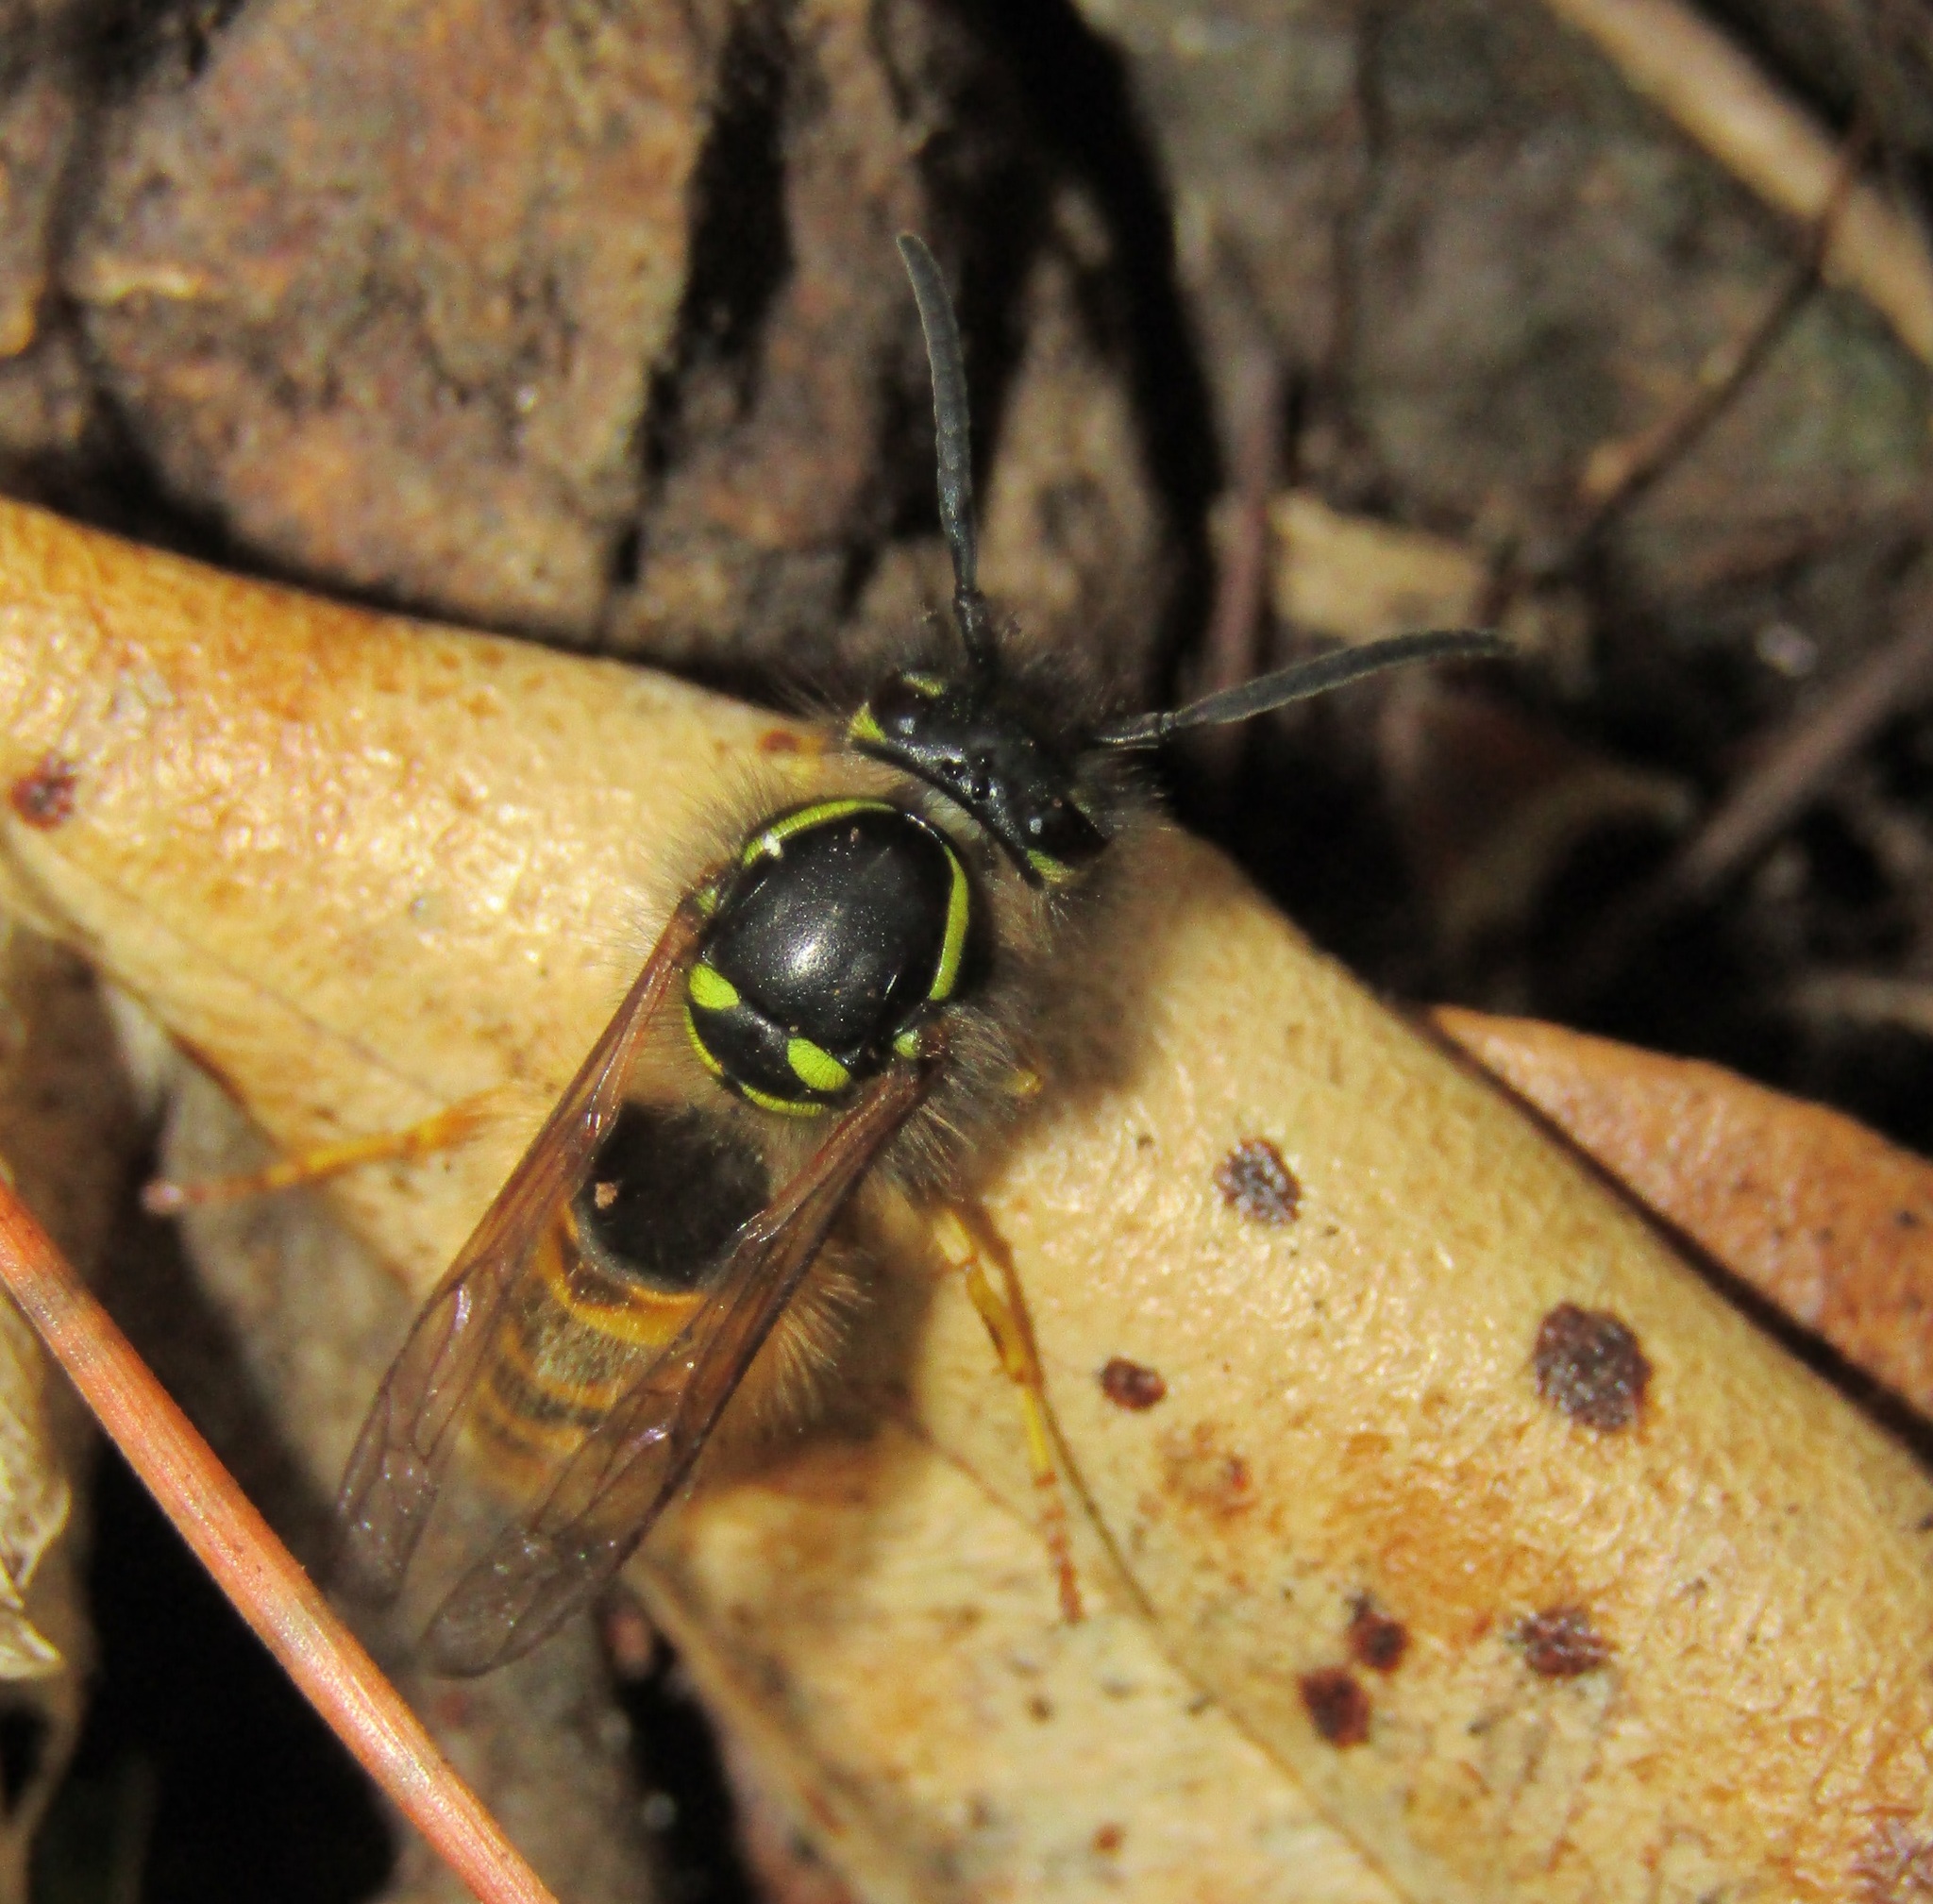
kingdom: Animalia
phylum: Arthropoda
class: Insecta
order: Hymenoptera
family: Vespidae
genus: Vespula
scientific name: Vespula vulgaris
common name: Common wasp
